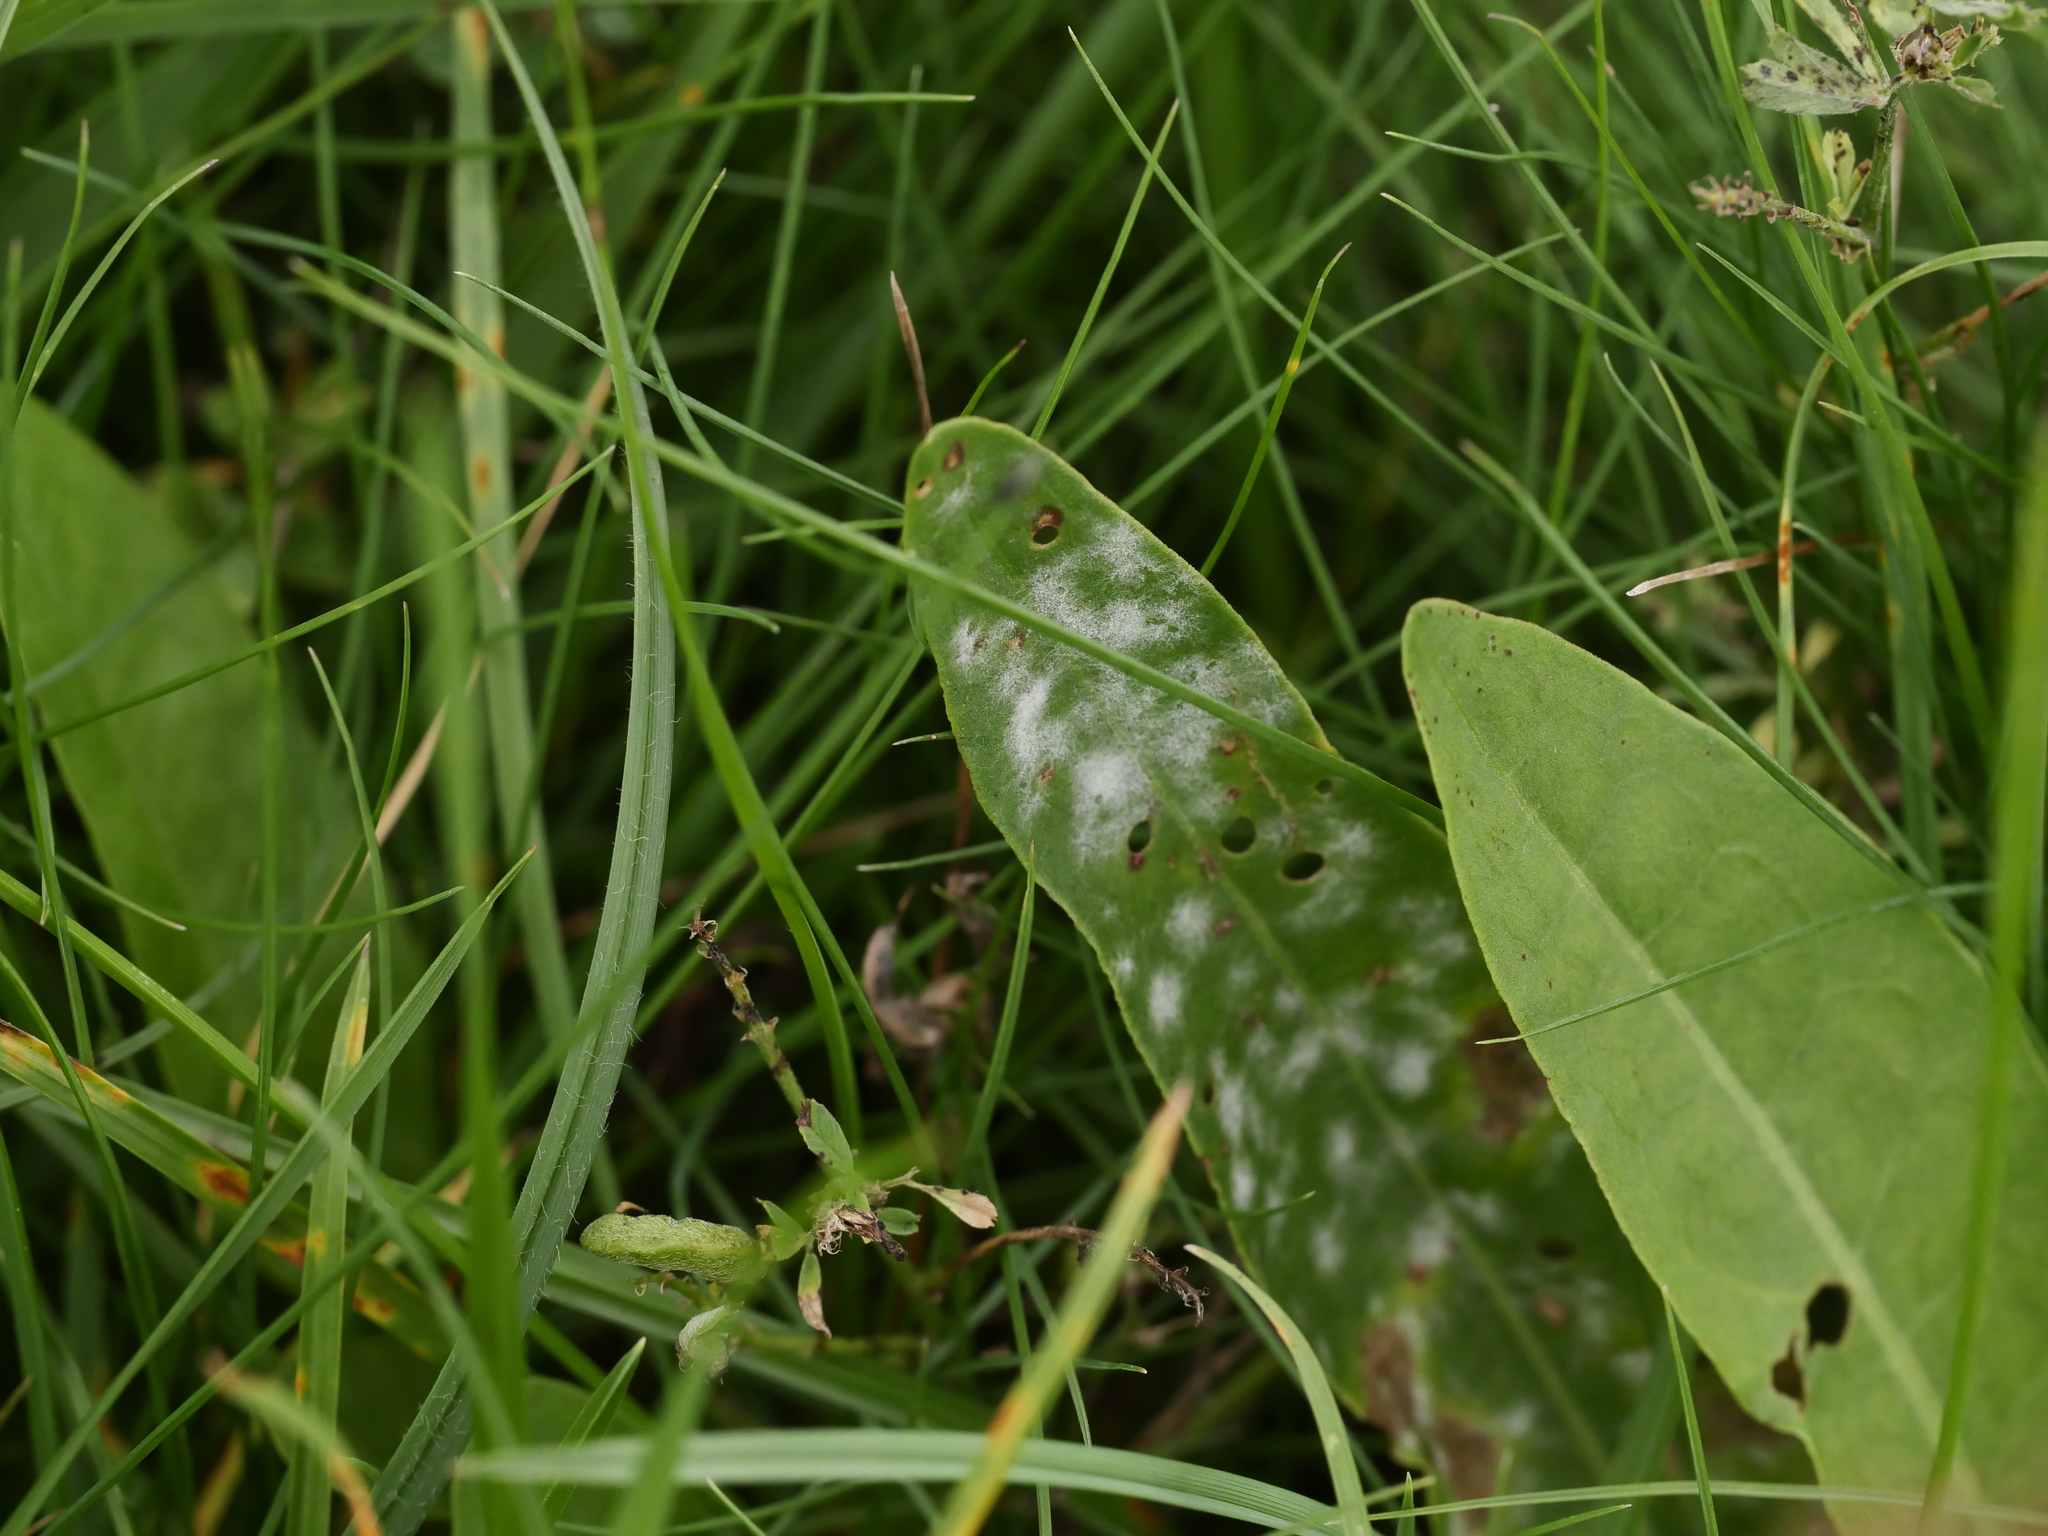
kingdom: Fungi
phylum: Ascomycota
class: Leotiomycetes
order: Helotiales
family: Erysiphaceae
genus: Erysiphe
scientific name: Erysiphe polygoni
